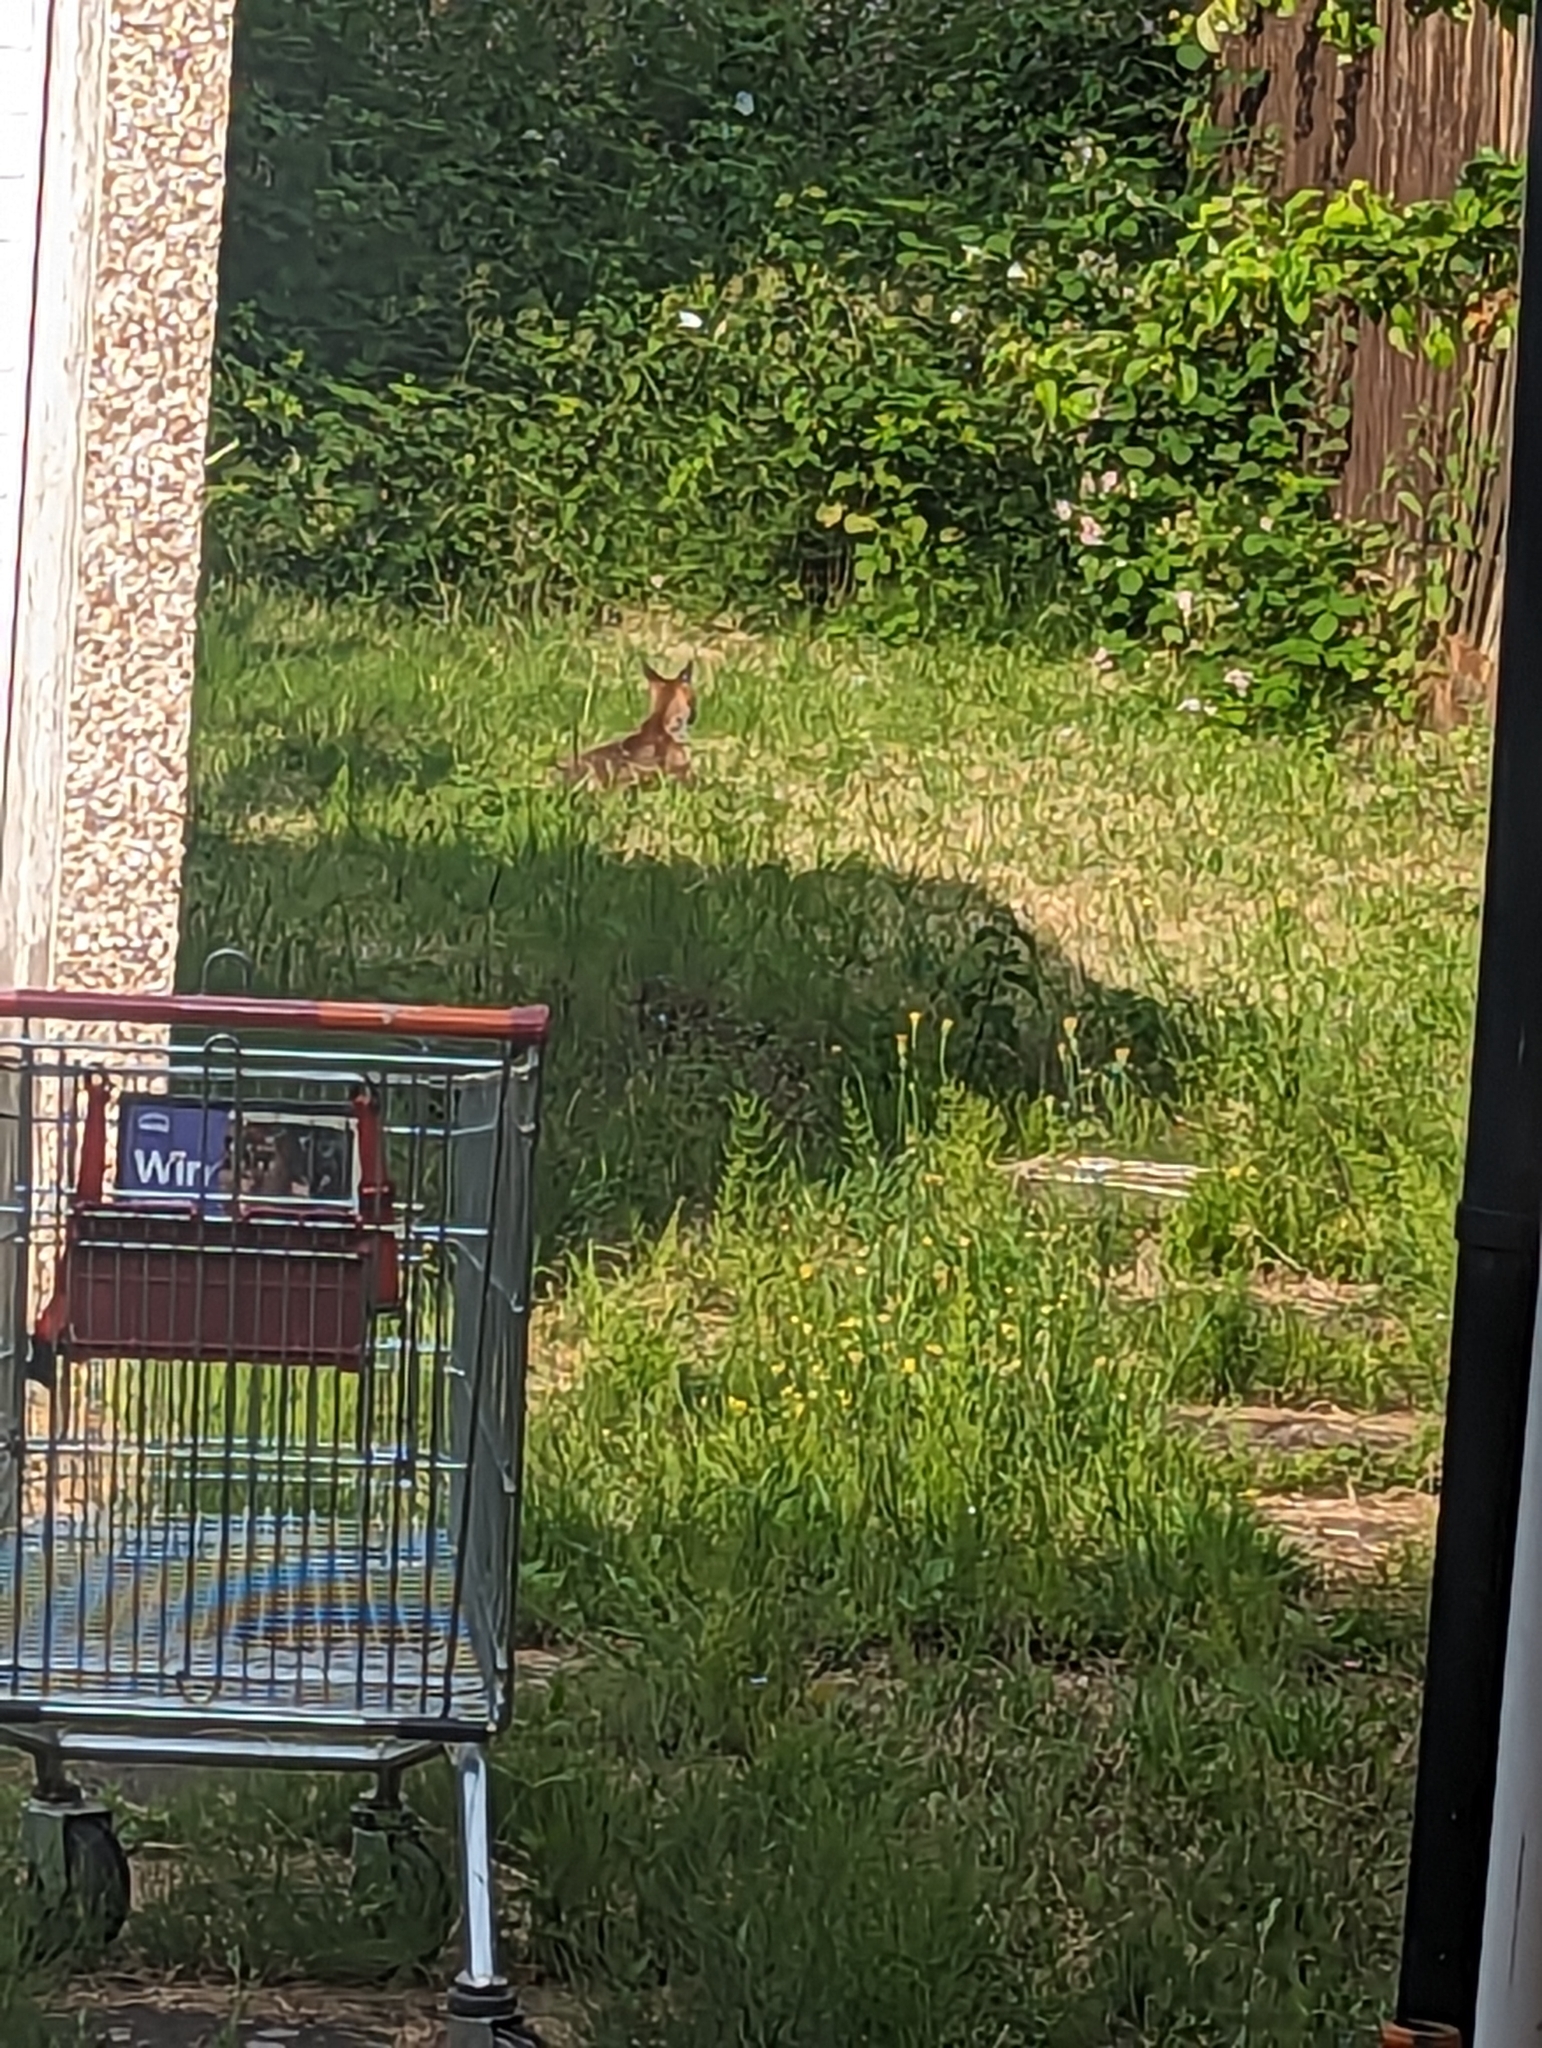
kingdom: Animalia
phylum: Chordata
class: Mammalia
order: Carnivora
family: Canidae
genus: Vulpes
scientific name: Vulpes vulpes
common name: Red fox
